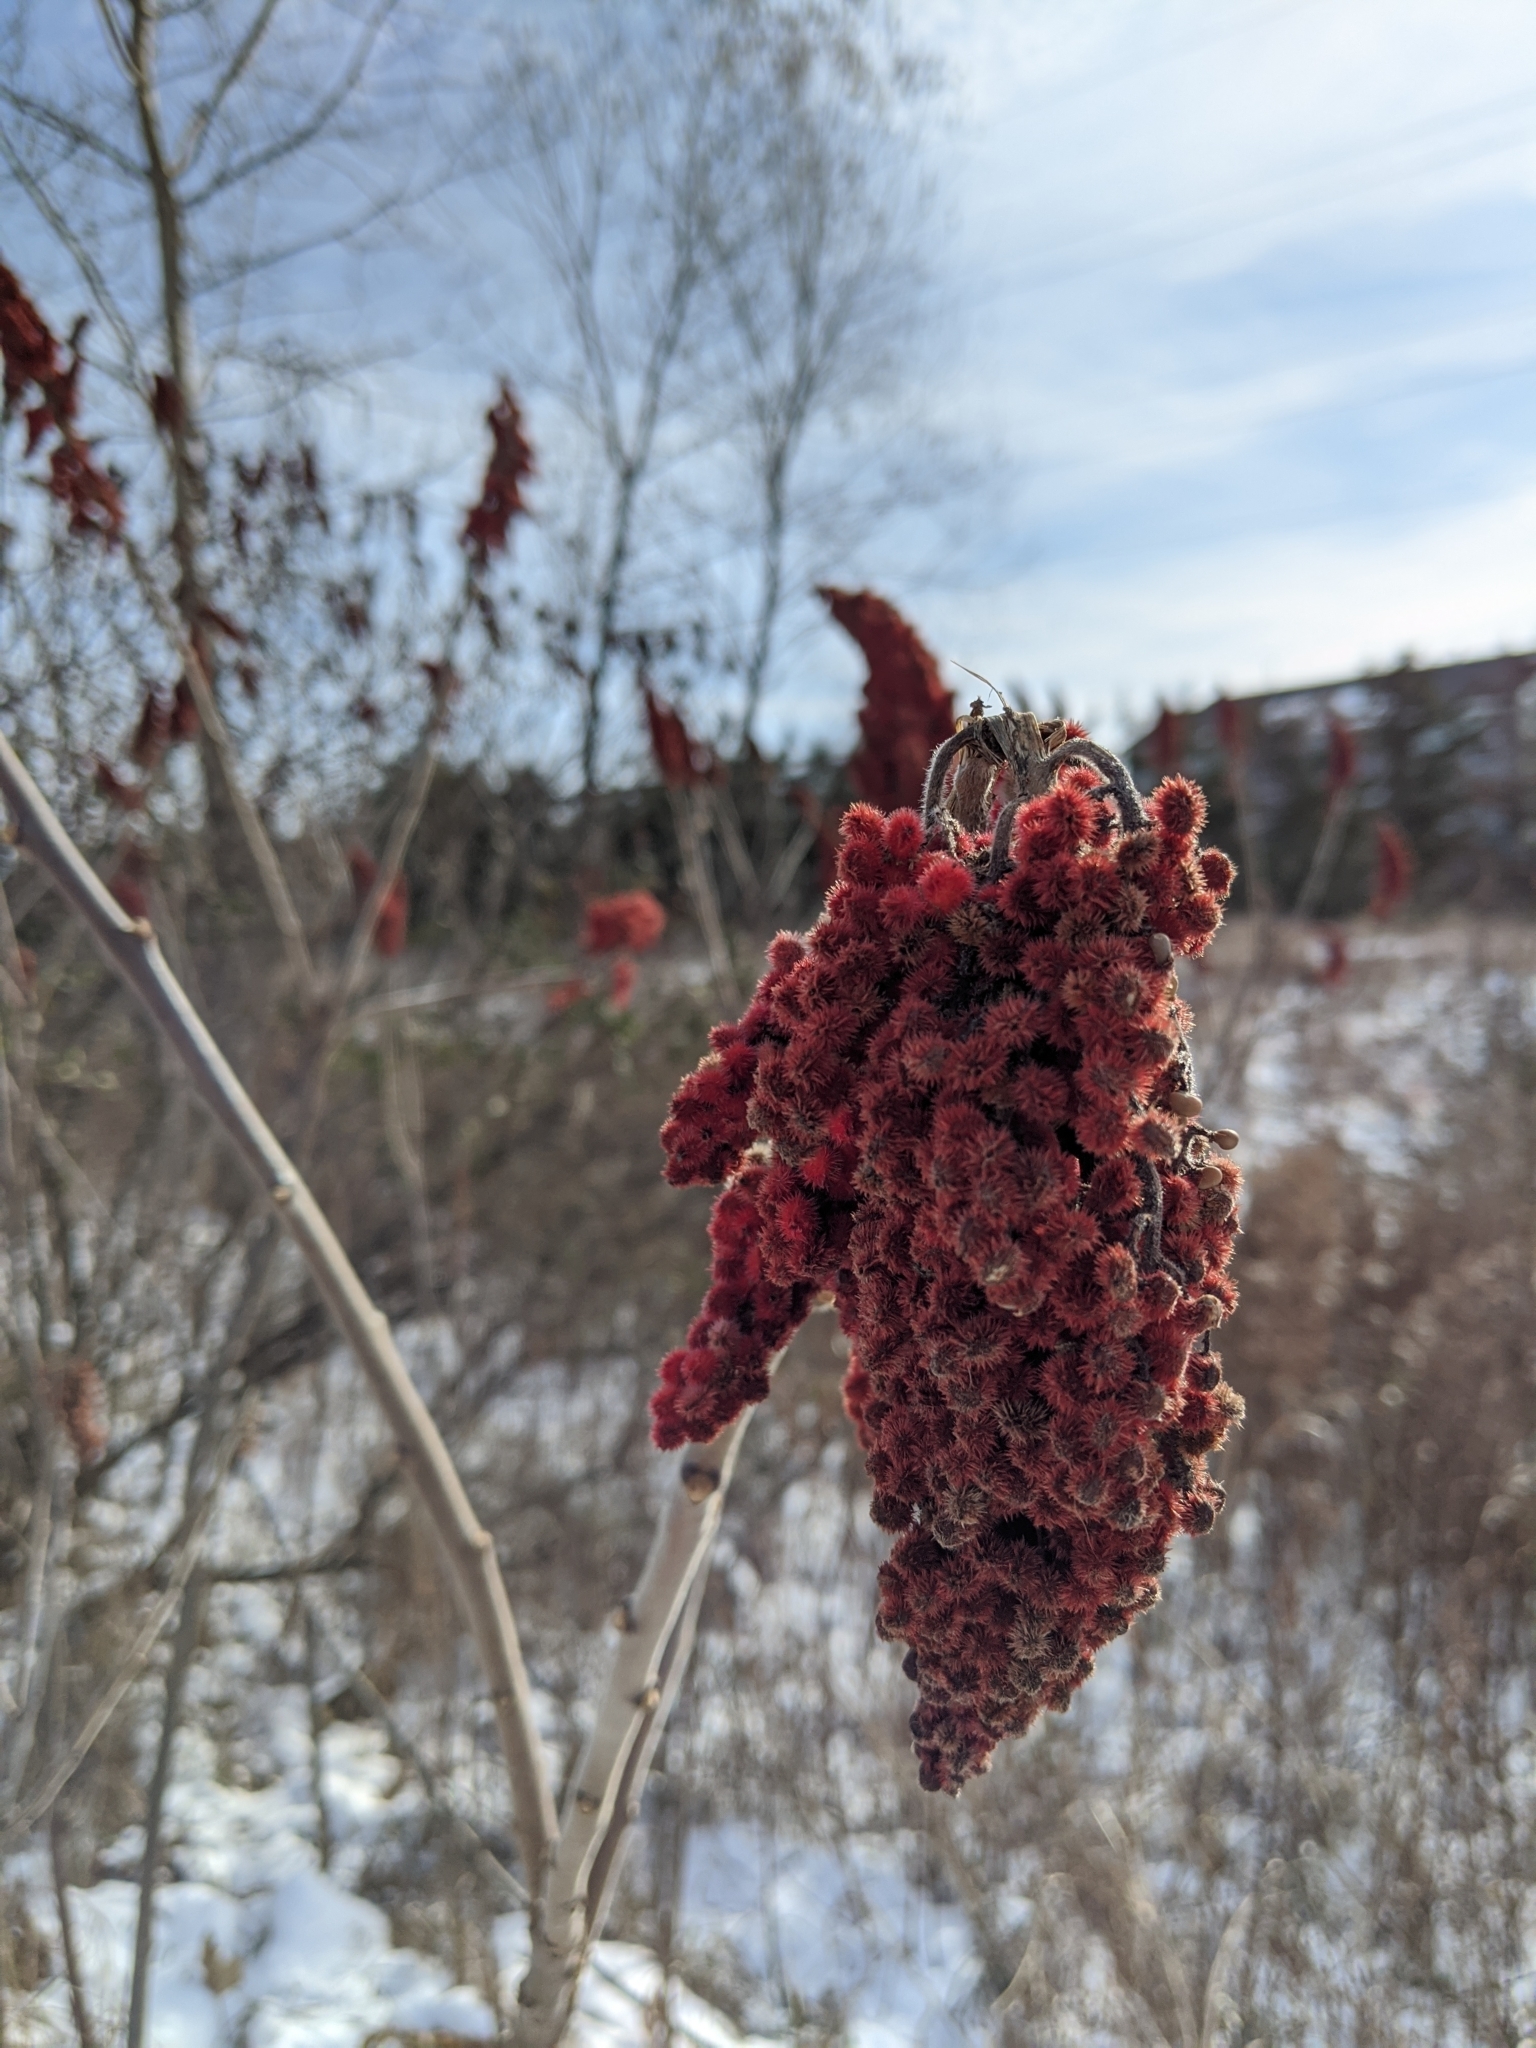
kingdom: Plantae
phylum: Tracheophyta
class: Magnoliopsida
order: Sapindales
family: Anacardiaceae
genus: Rhus
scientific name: Rhus typhina
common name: Staghorn sumac
